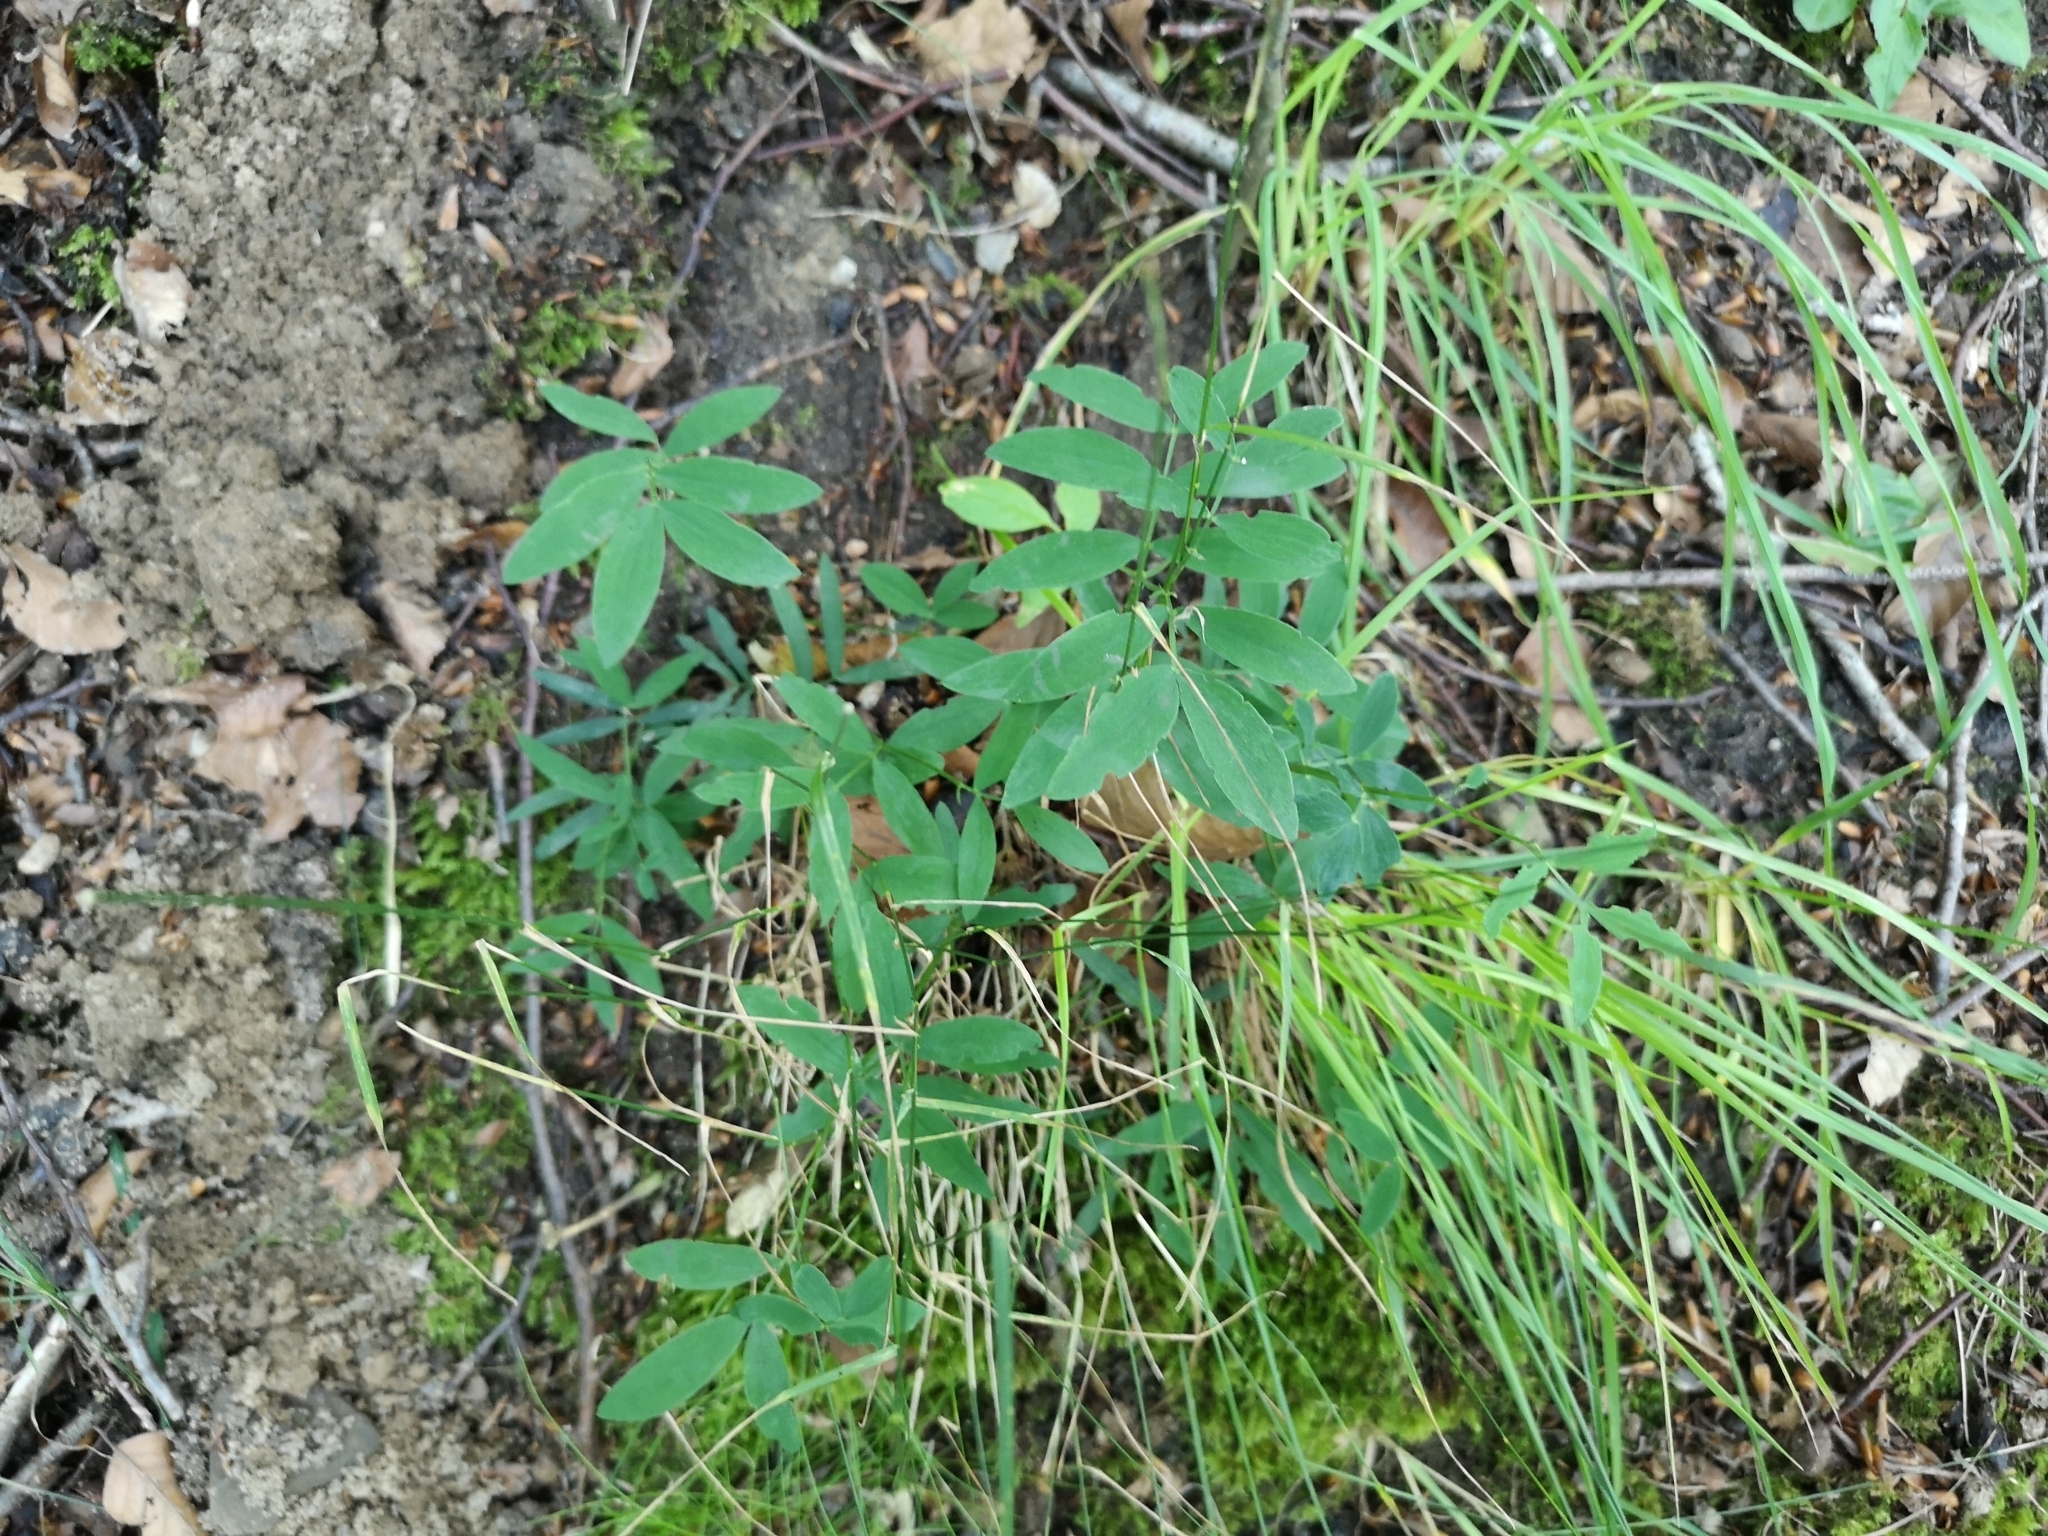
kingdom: Plantae
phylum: Tracheophyta
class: Magnoliopsida
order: Fabales
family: Fabaceae
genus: Lathyrus
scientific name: Lathyrus linifolius
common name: Bitter-vetch
